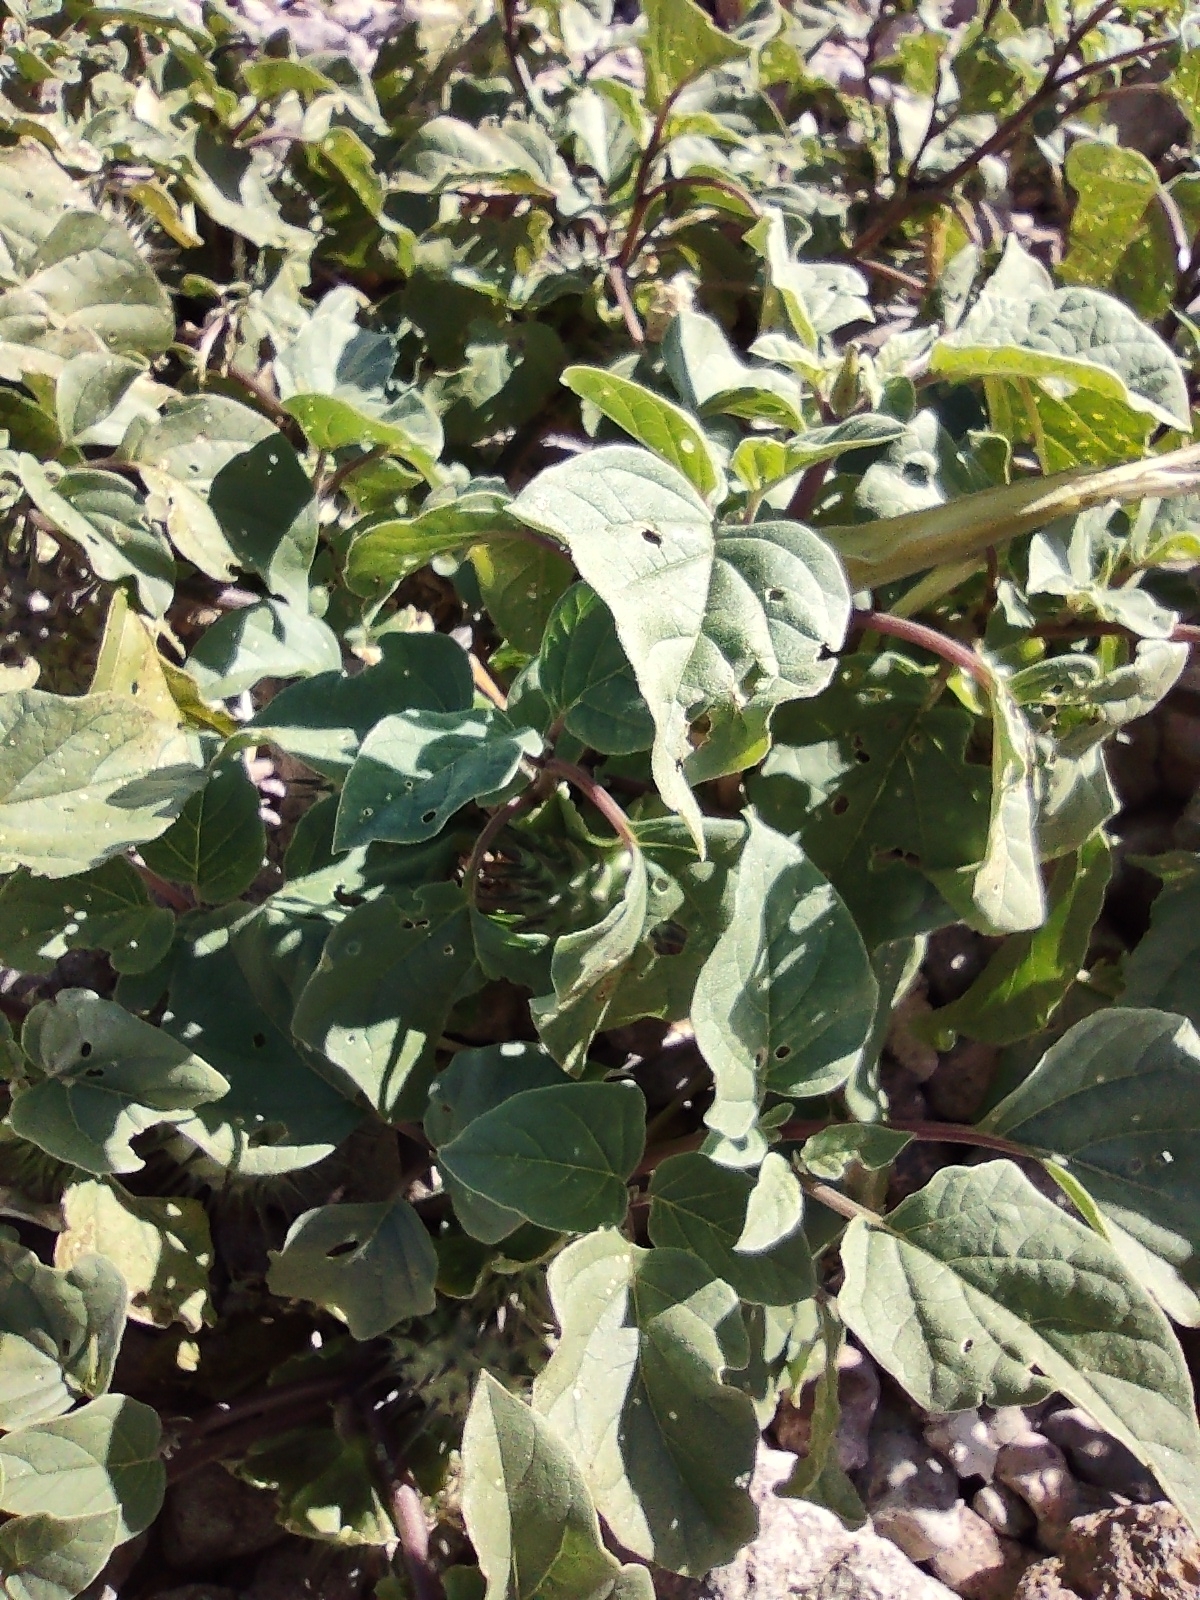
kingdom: Plantae
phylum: Tracheophyta
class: Magnoliopsida
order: Solanales
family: Solanaceae
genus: Datura
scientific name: Datura discolor
